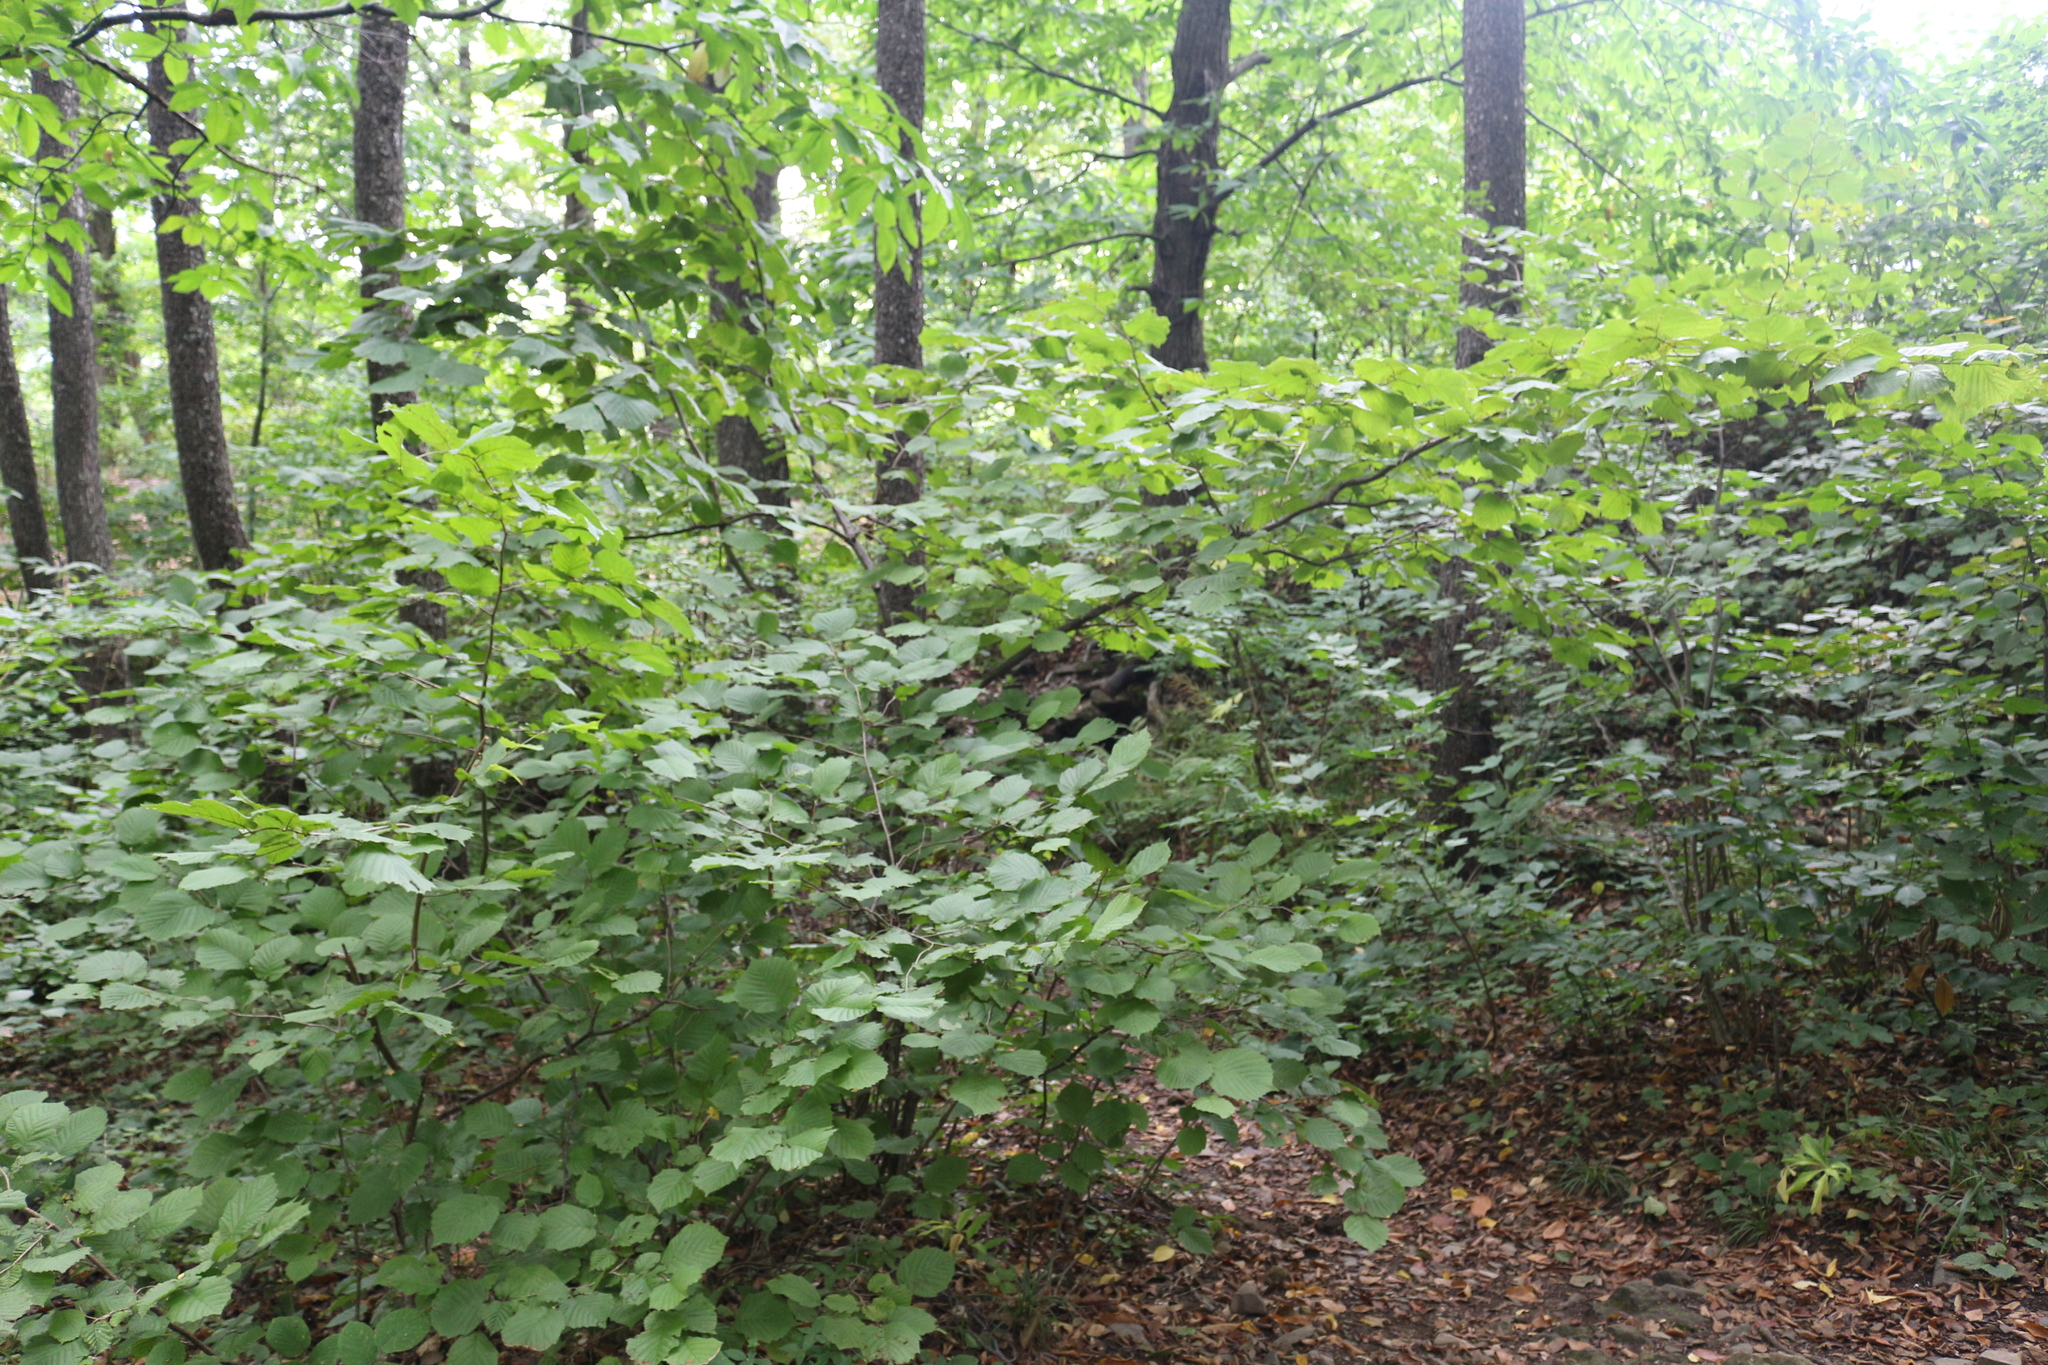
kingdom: Plantae
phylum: Tracheophyta
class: Magnoliopsida
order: Fagales
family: Betulaceae
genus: Corylus
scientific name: Corylus avellana
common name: European hazel
